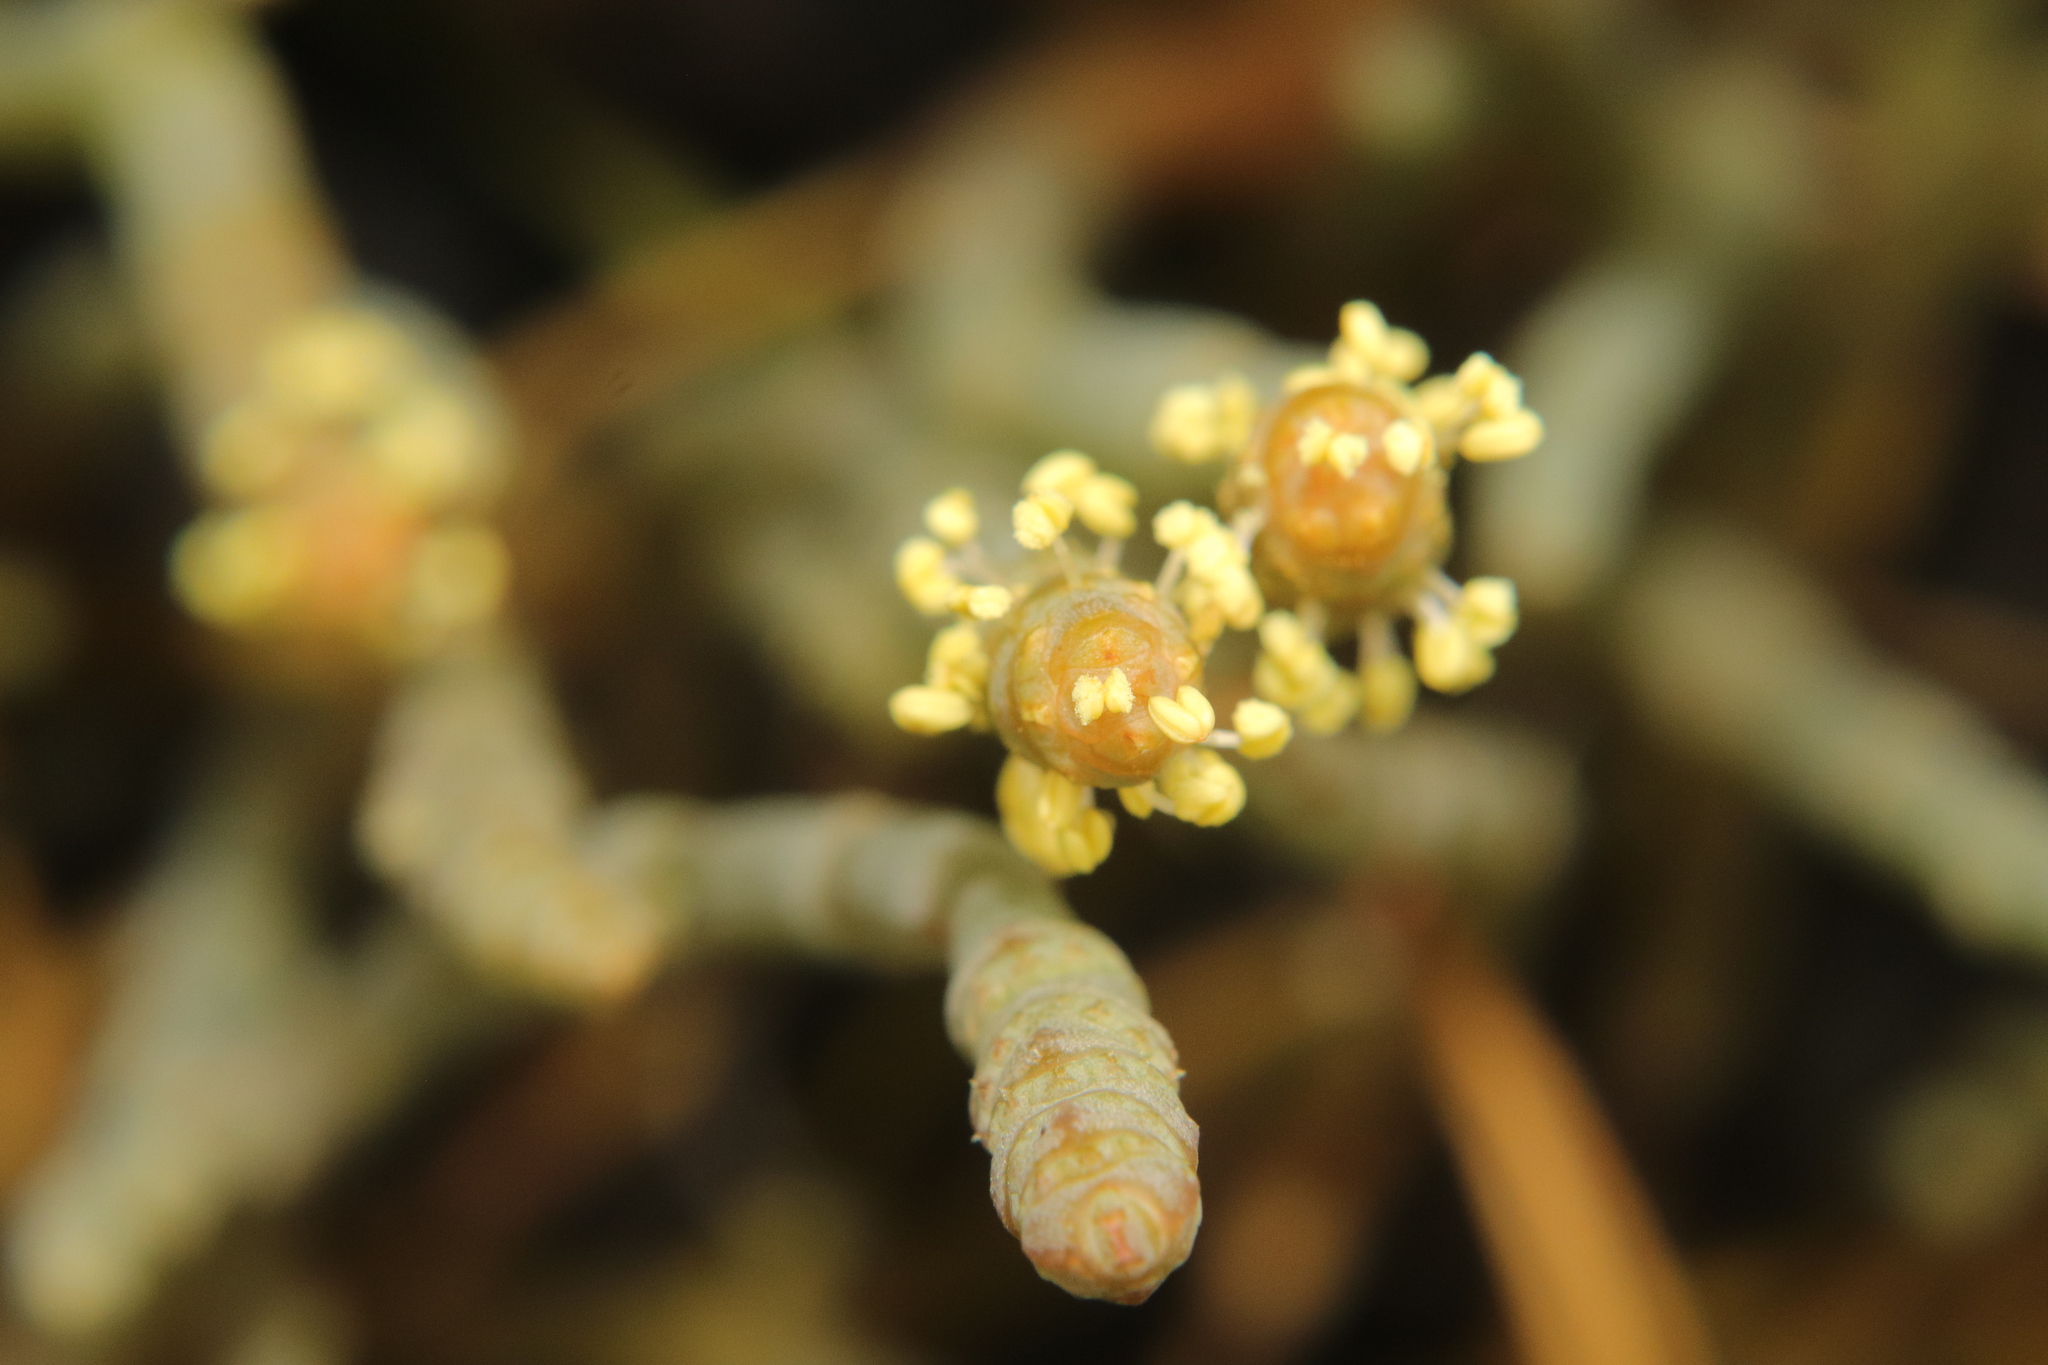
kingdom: Plantae
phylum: Tracheophyta
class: Magnoliopsida
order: Caryophyllales
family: Amaranthaceae
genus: Salicornia
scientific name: Salicornia quinqueflora
